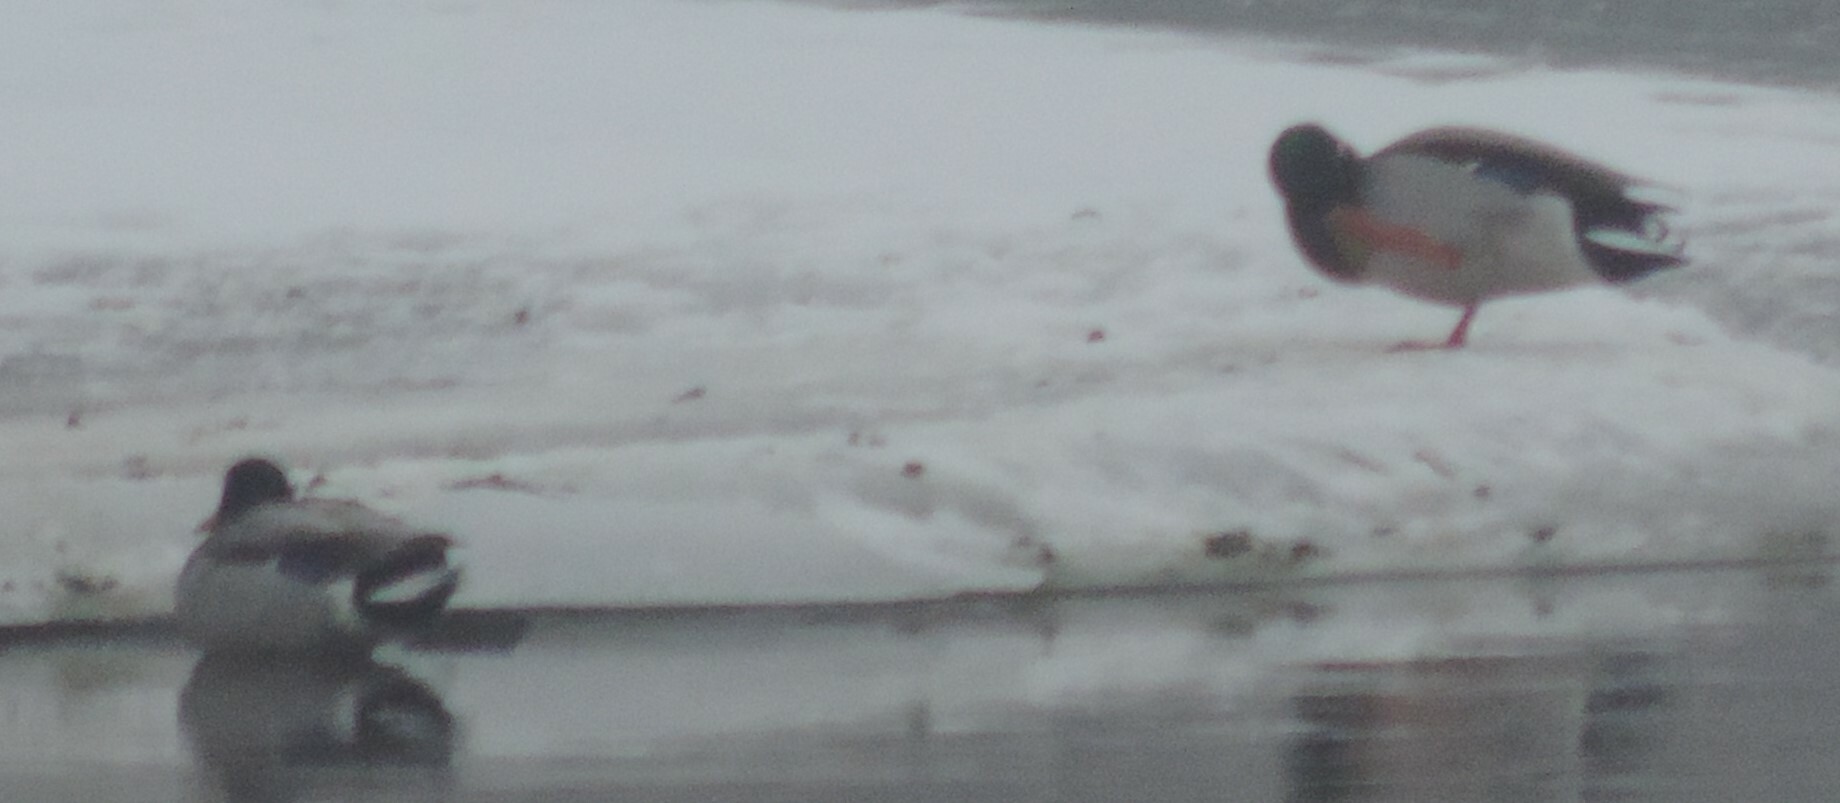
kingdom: Animalia
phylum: Chordata
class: Aves
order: Anseriformes
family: Anatidae
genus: Anas
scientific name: Anas platyrhynchos
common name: Mallard
